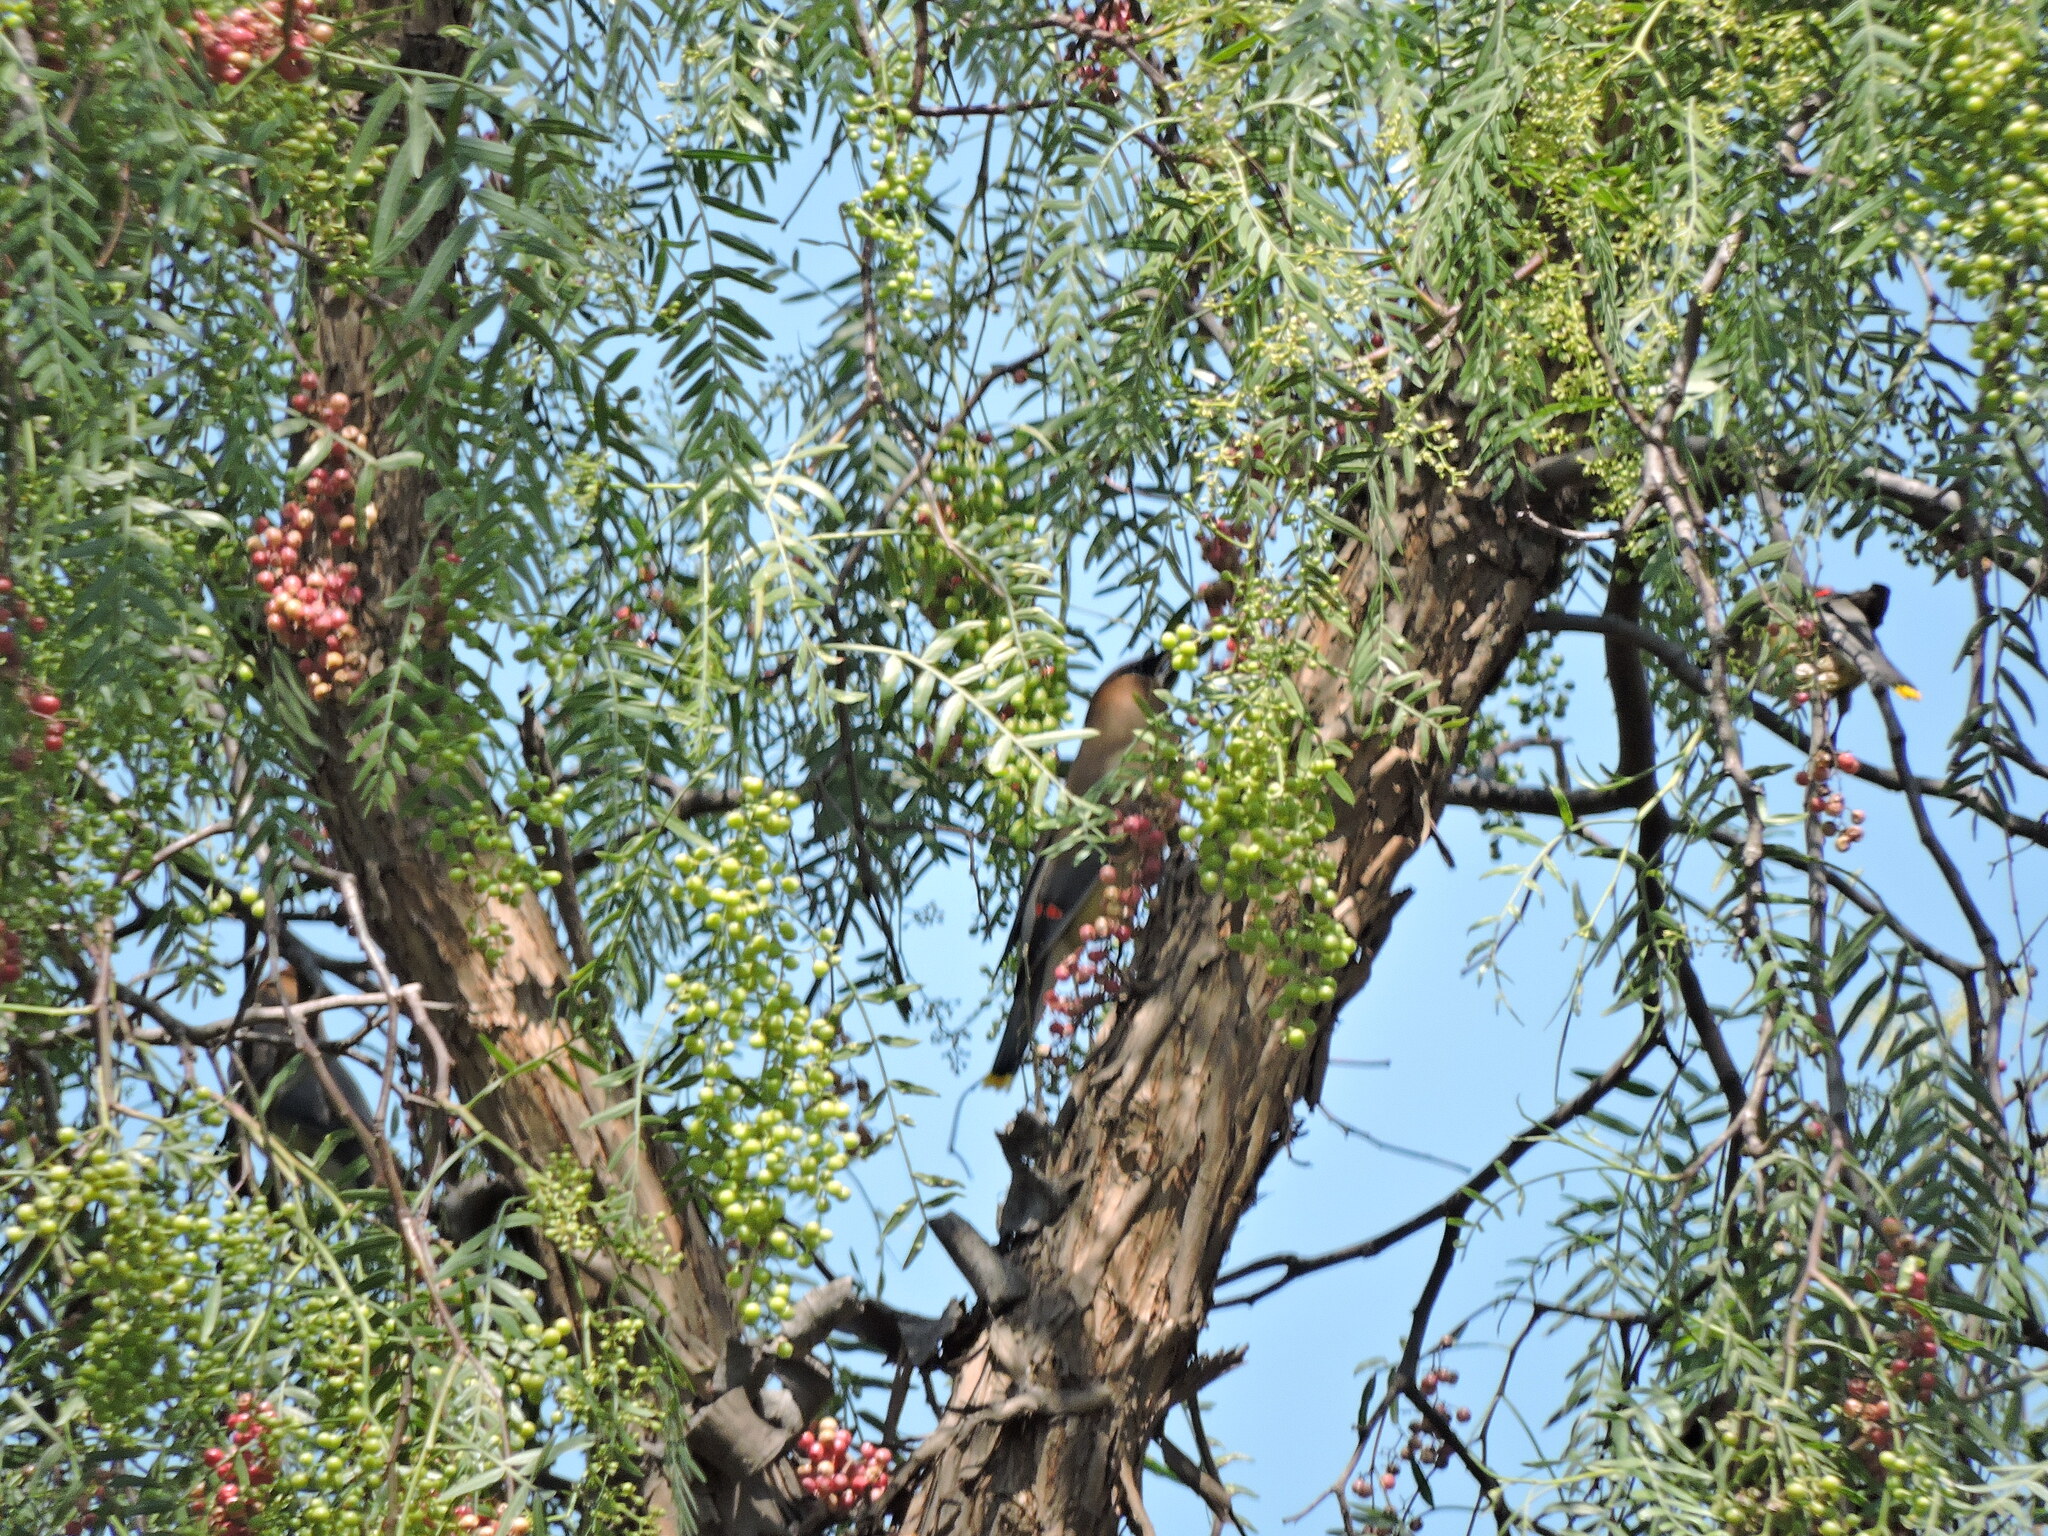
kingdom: Animalia
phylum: Chordata
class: Aves
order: Passeriformes
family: Bombycillidae
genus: Bombycilla
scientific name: Bombycilla cedrorum
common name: Cedar waxwing
